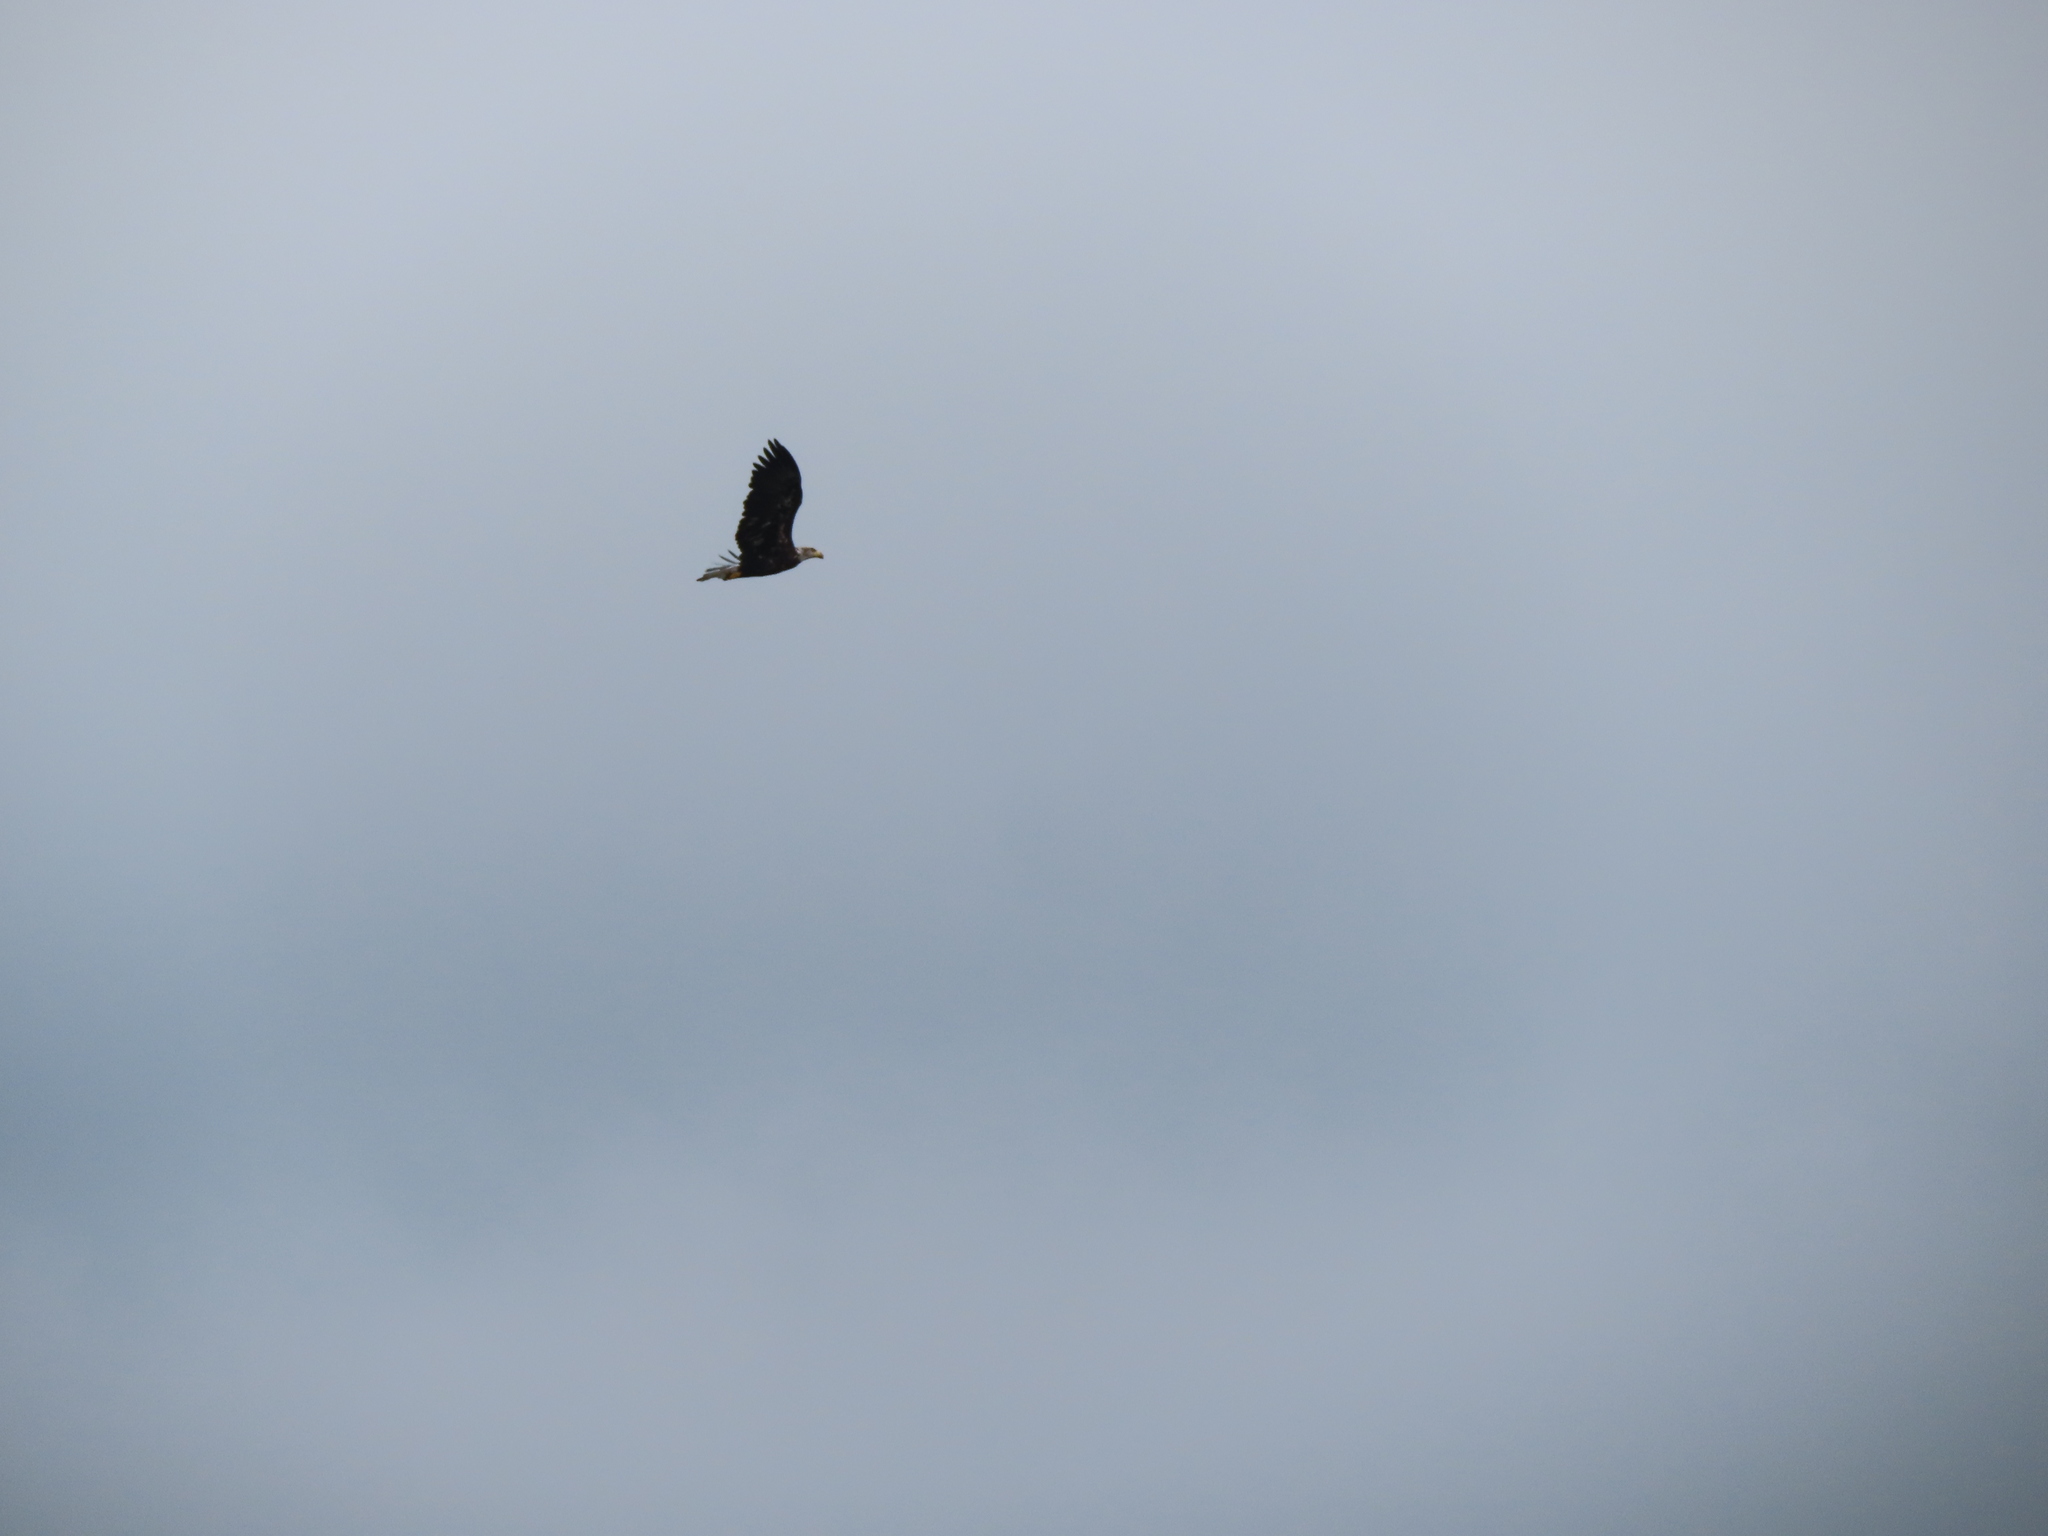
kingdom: Animalia
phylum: Chordata
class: Aves
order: Accipitriformes
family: Accipitridae
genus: Haliaeetus
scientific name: Haliaeetus leucocephalus
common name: Bald eagle
